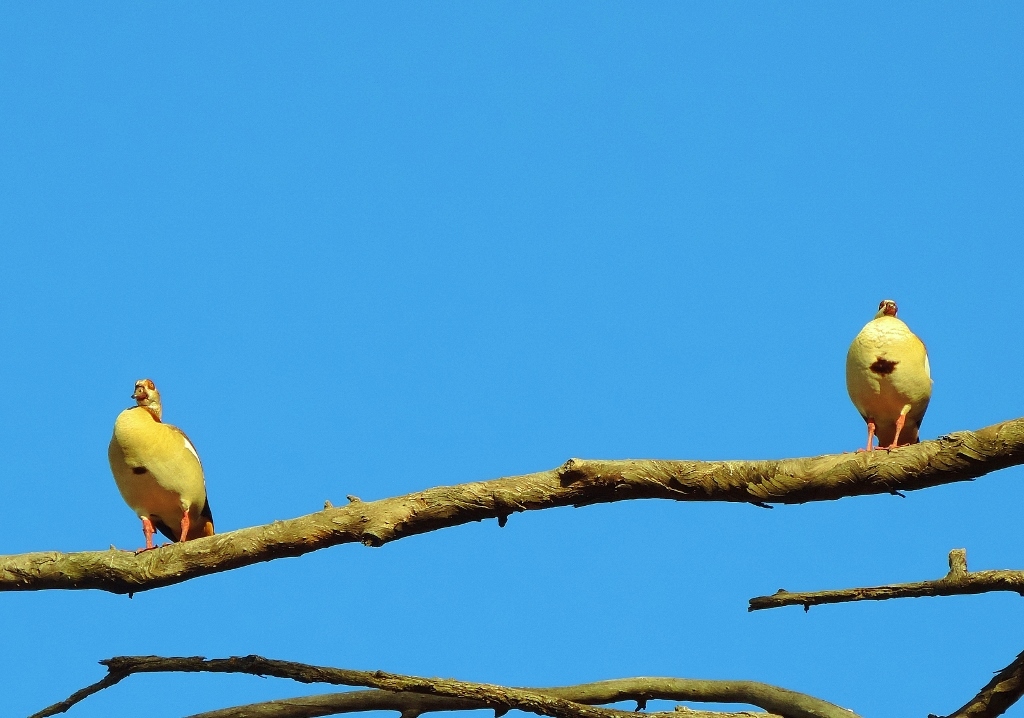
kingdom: Animalia
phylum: Chordata
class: Aves
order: Anseriformes
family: Anatidae
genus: Alopochen
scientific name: Alopochen aegyptiaca
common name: Egyptian goose
